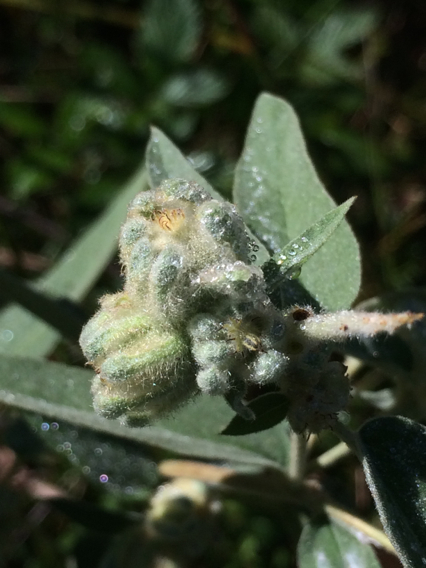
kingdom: Plantae
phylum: Tracheophyta
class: Magnoliopsida
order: Malpighiales
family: Euphorbiaceae
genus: Croton
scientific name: Croton lindheimeri
